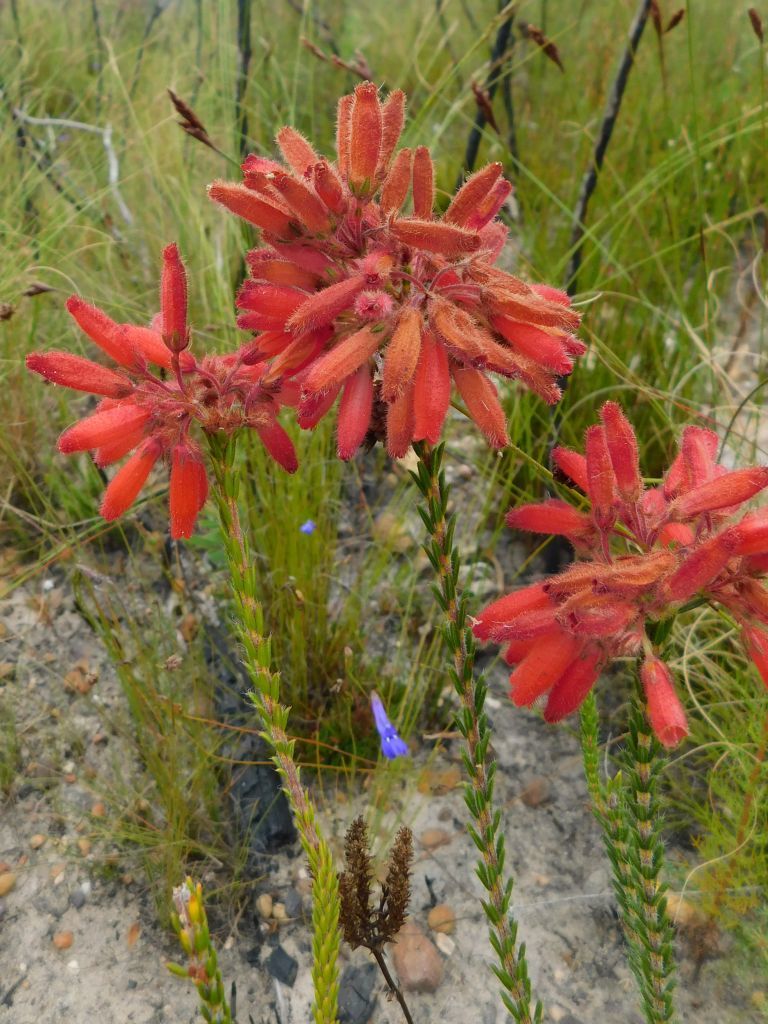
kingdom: Plantae
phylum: Tracheophyta
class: Magnoliopsida
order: Ericales
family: Ericaceae
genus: Erica
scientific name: Erica cerinthoides
